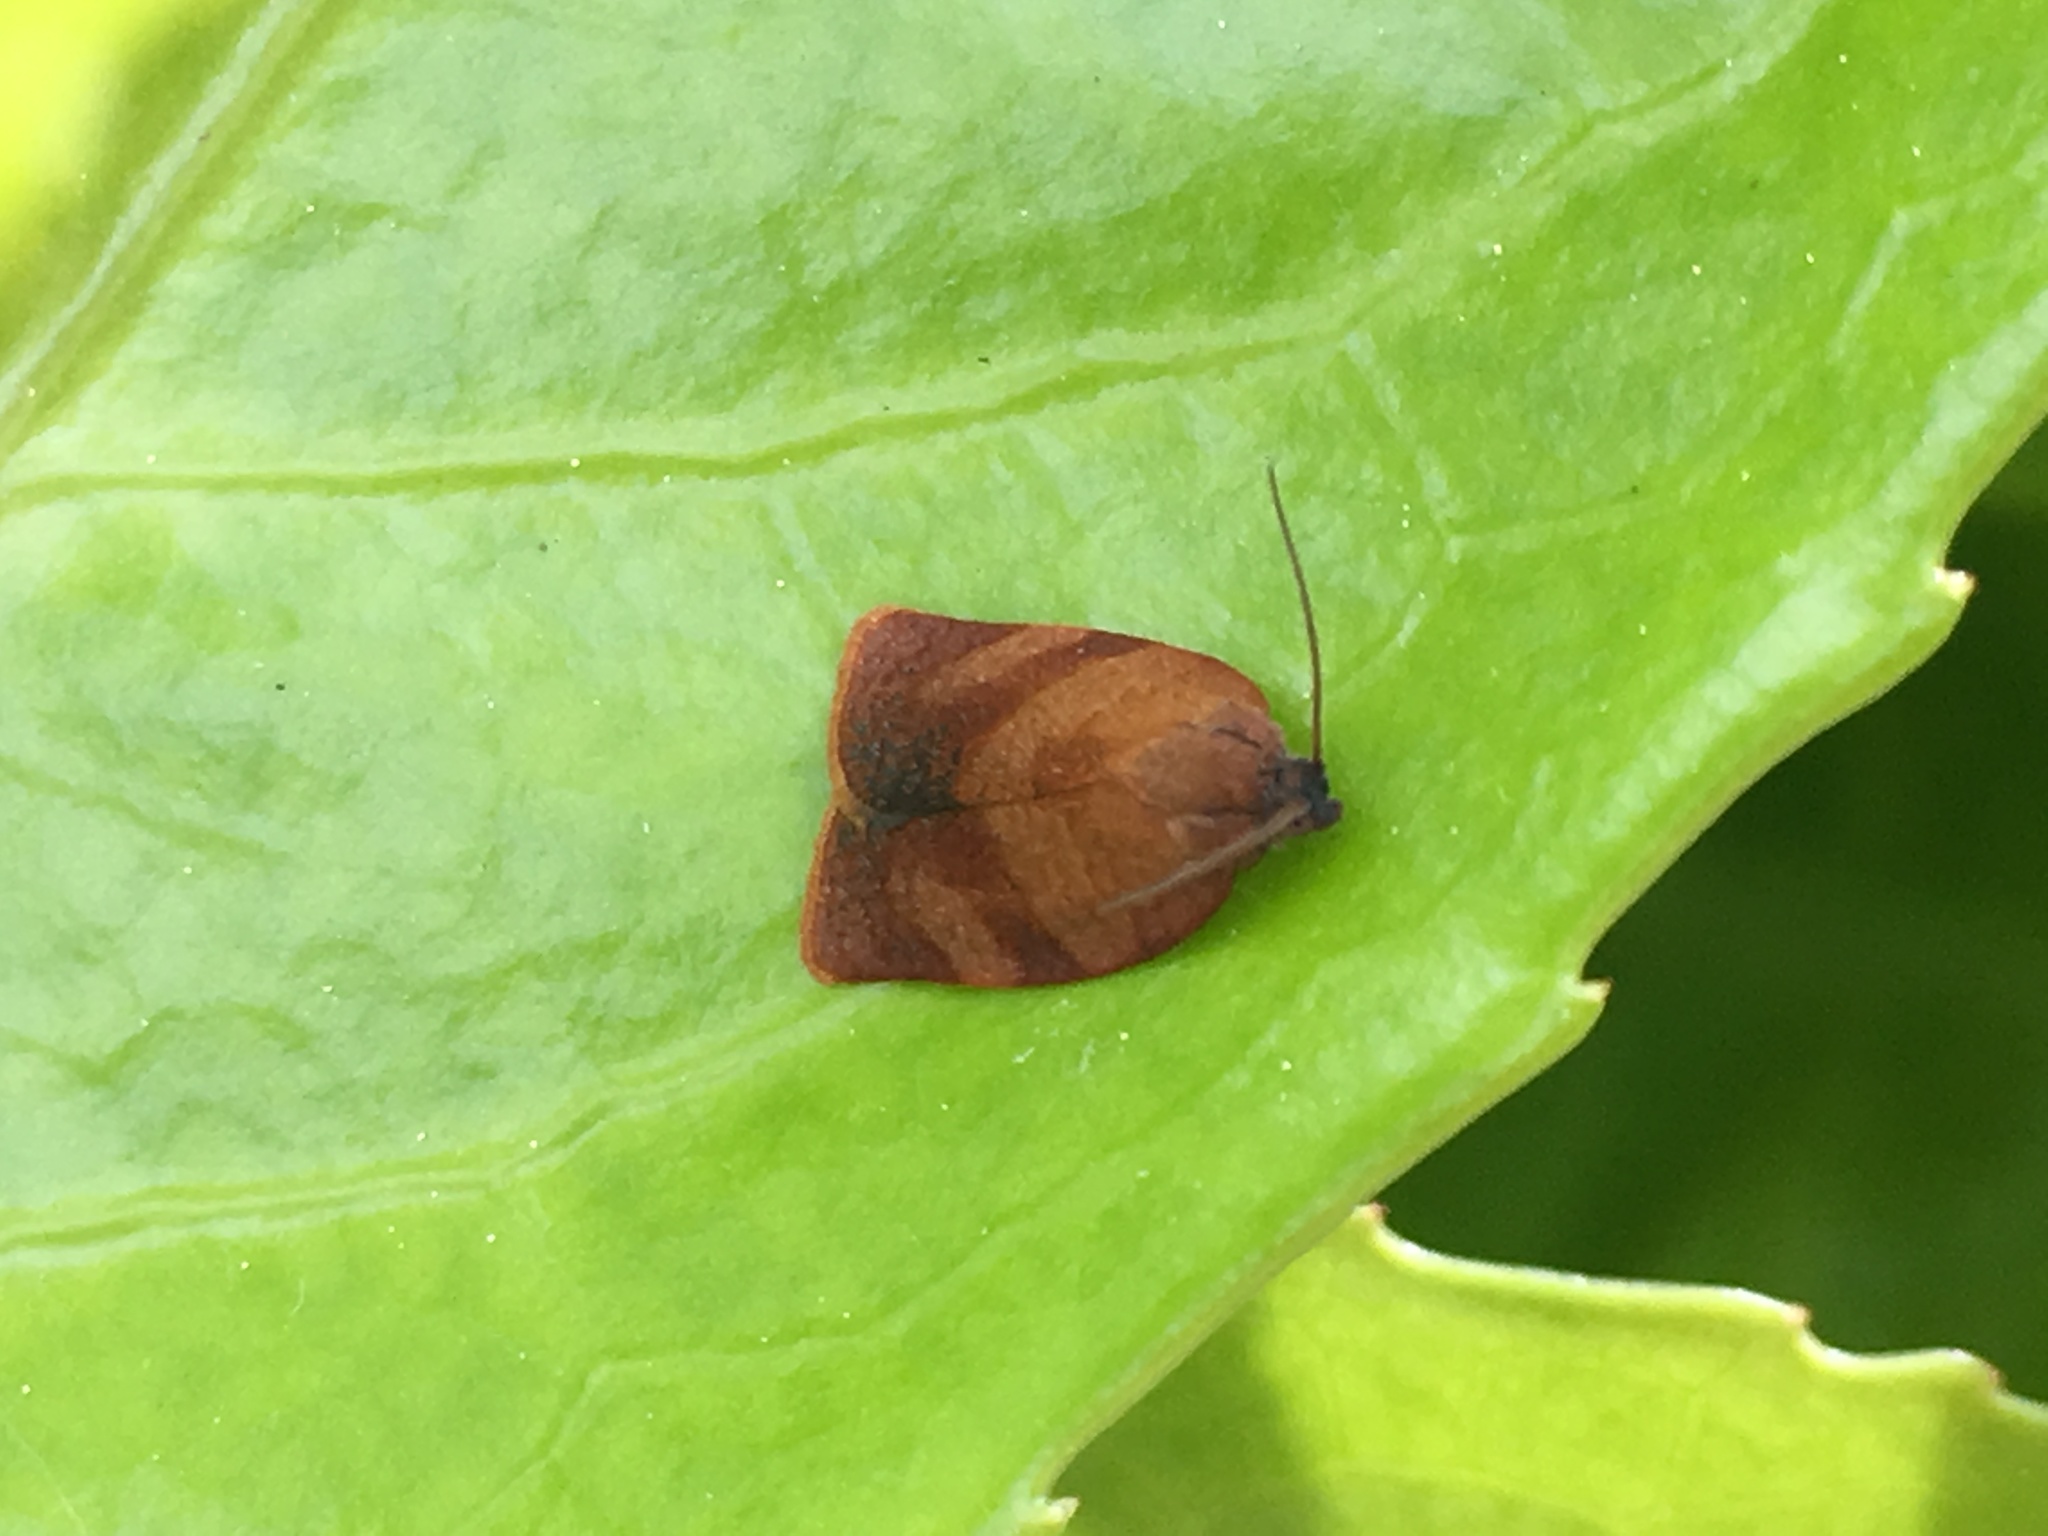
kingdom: Animalia
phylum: Arthropoda
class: Insecta
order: Lepidoptera
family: Tortricidae
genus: Cacoecimorpha
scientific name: Cacoecimorpha pronubana
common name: Carnation tortrix
